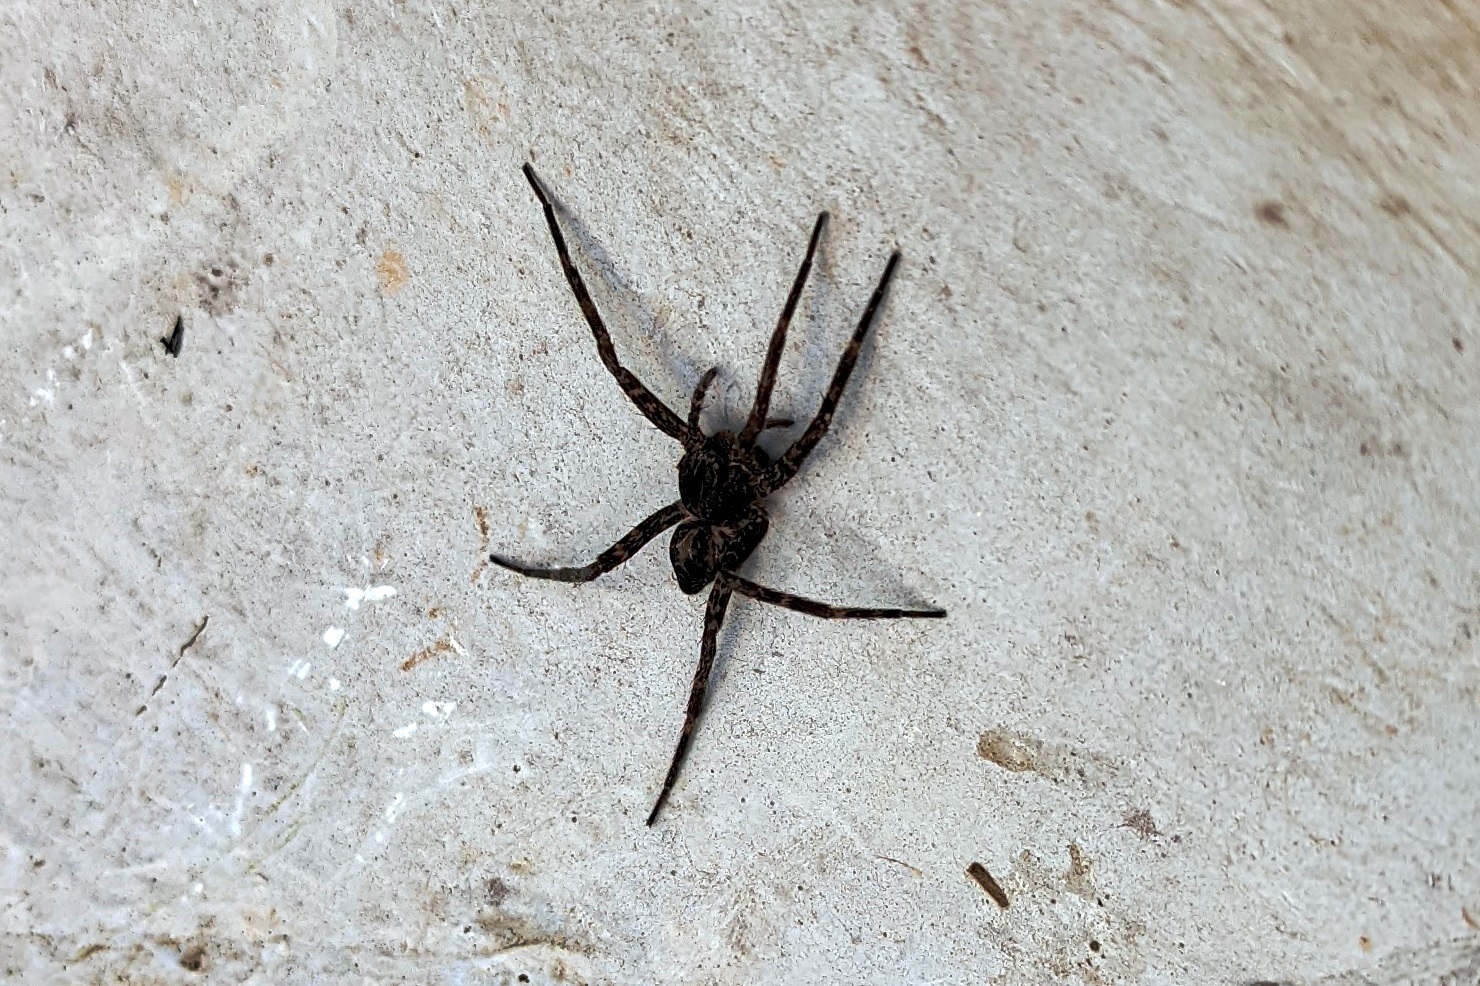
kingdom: Animalia
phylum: Arthropoda
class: Arachnida
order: Araneae
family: Pisauridae
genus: Dolomedes
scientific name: Dolomedes scriptus
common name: Striped fishing spider
